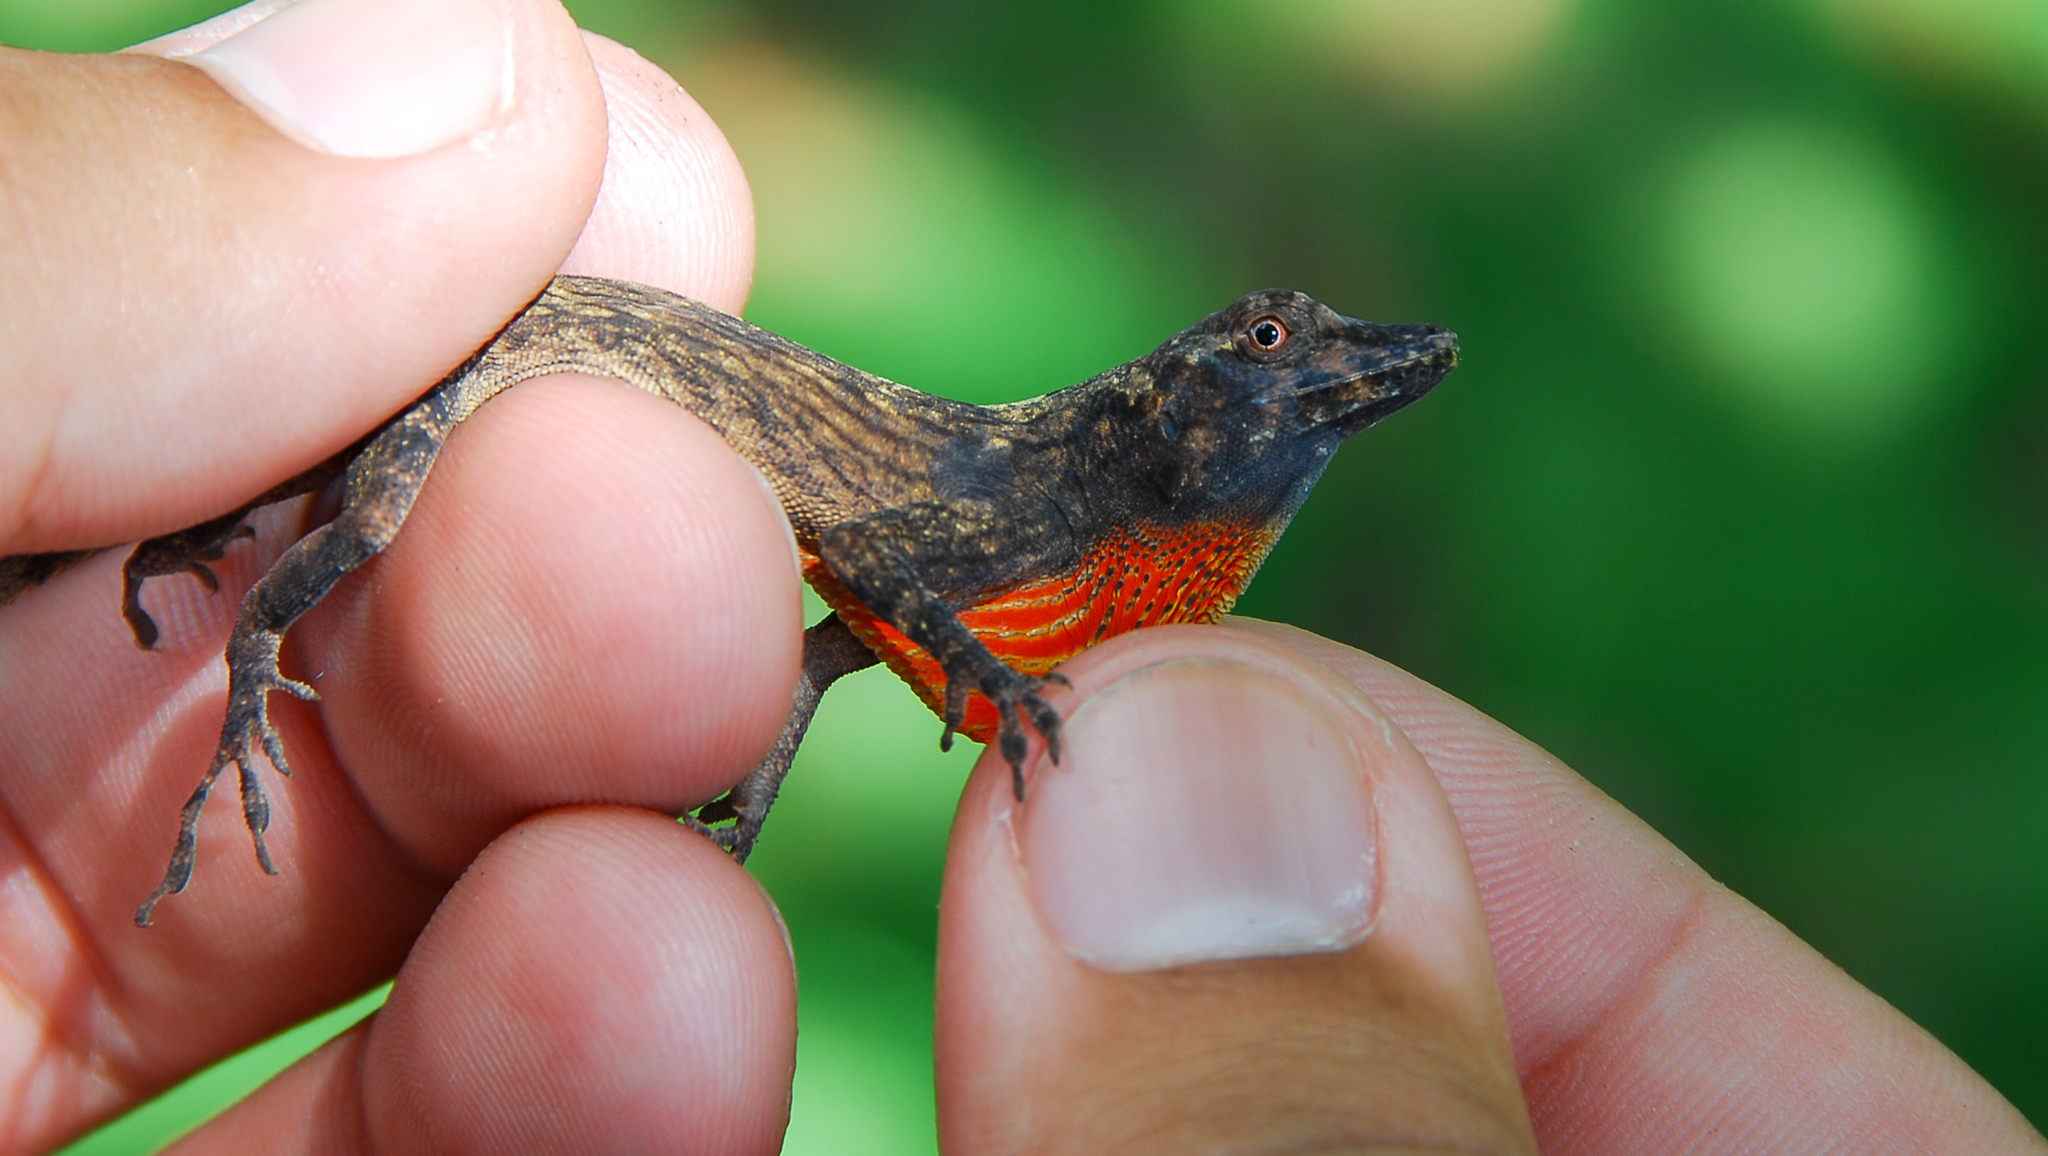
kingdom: Animalia
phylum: Chordata
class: Squamata
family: Dactyloidae
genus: Anolis
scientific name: Anolis ortonii
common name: Bark anole
